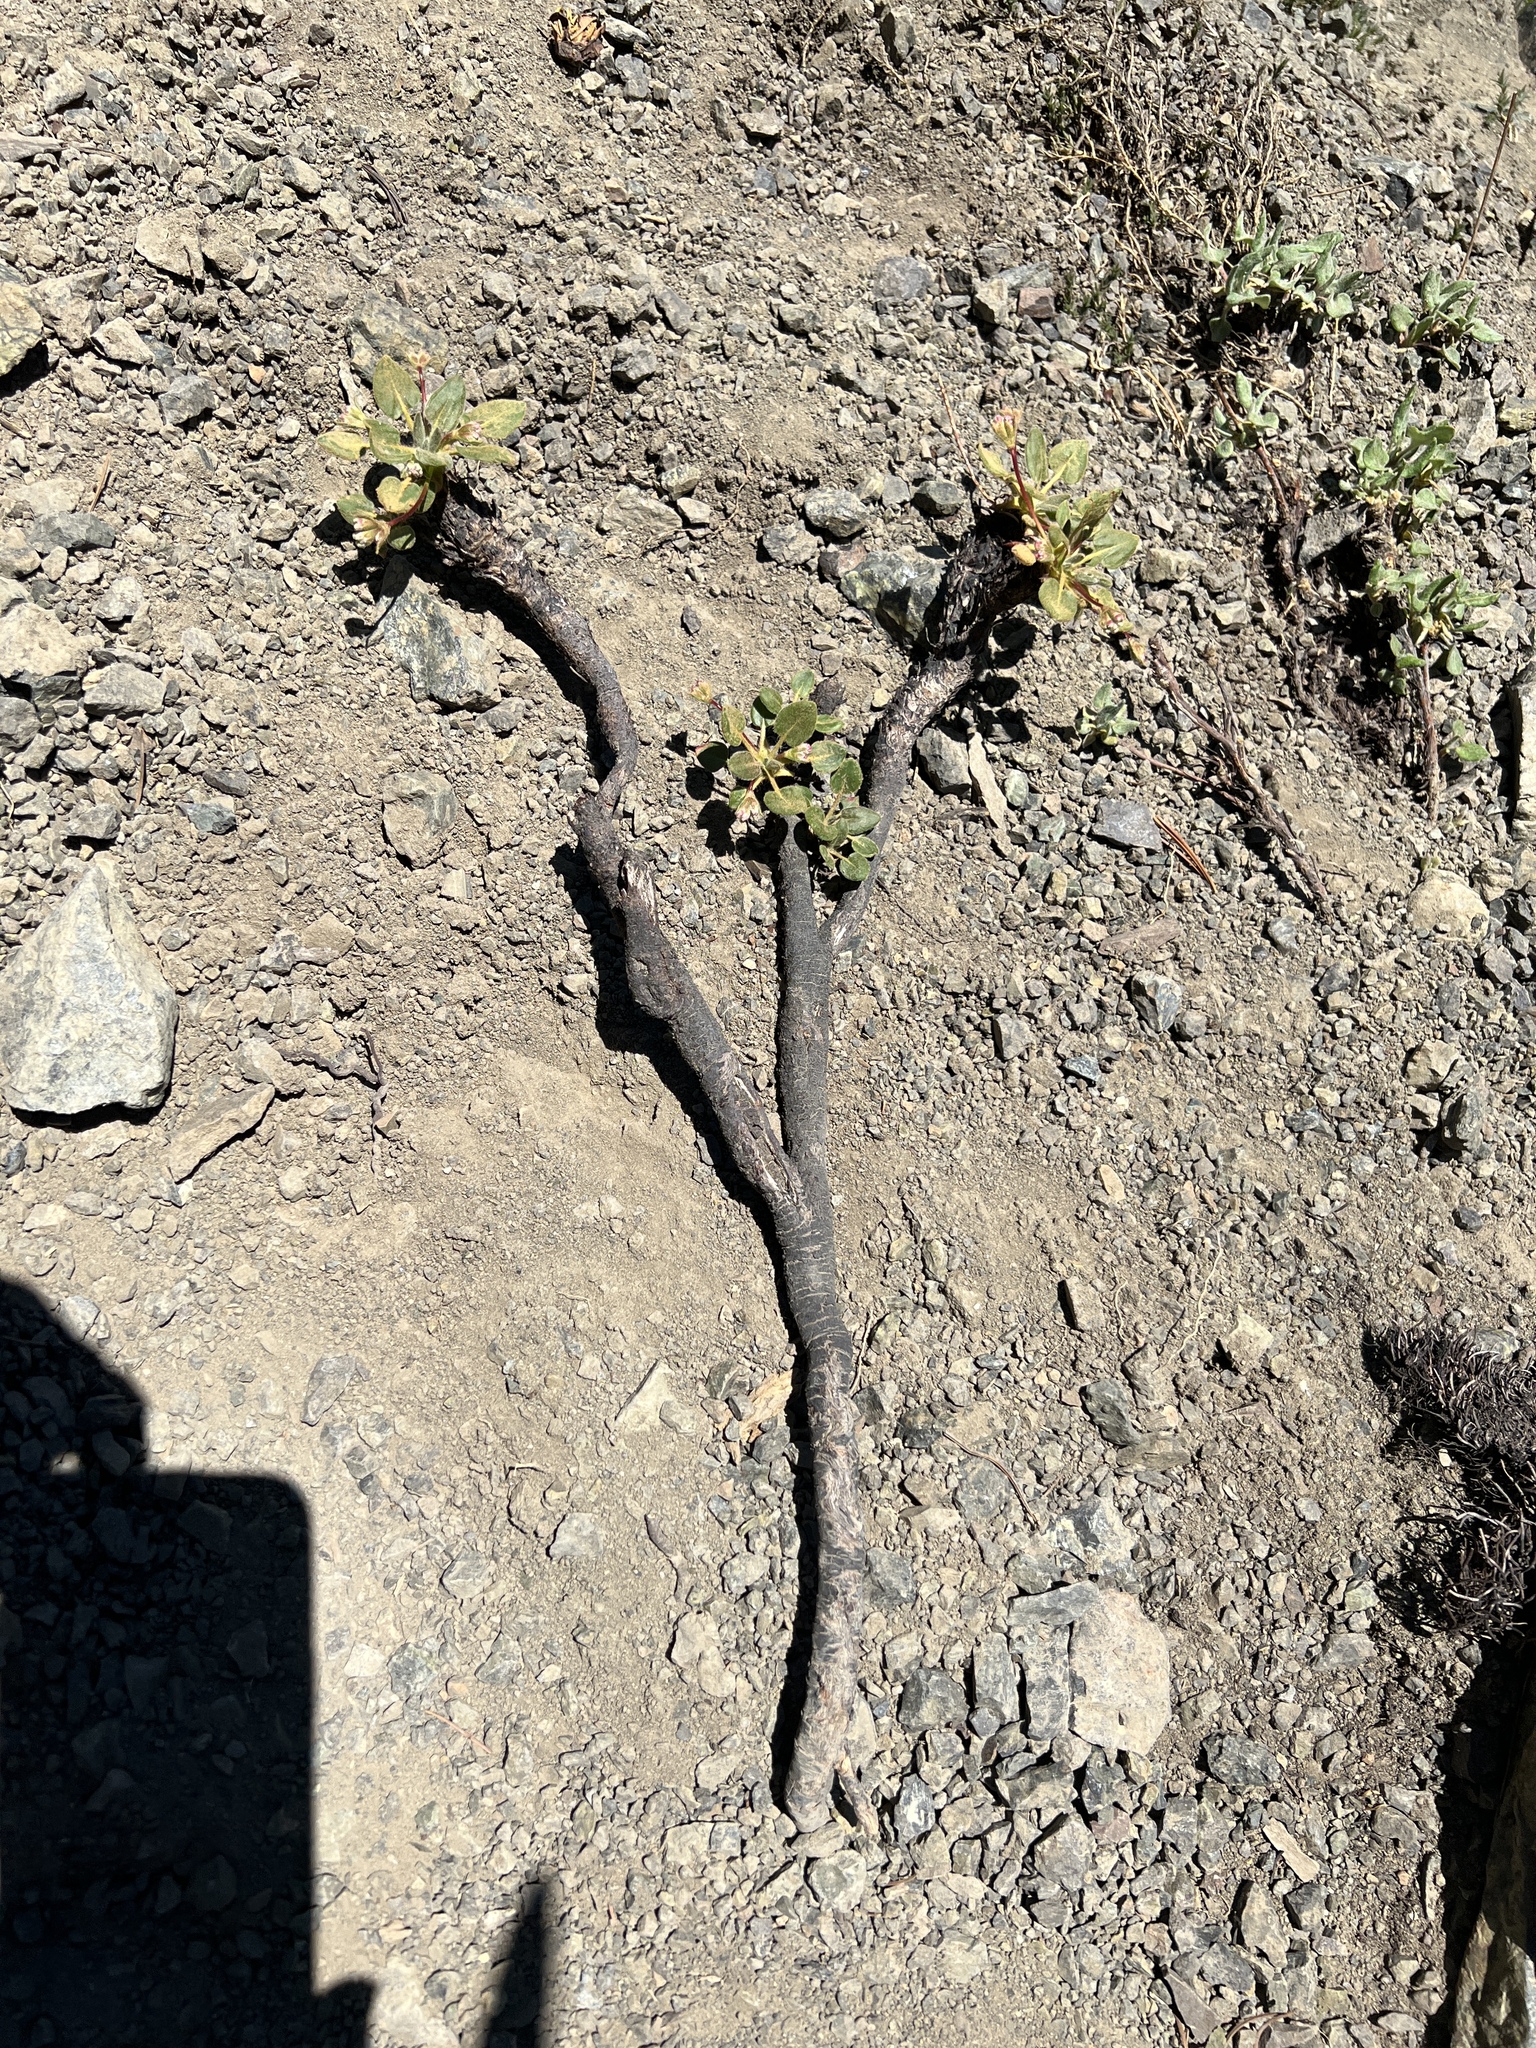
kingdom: Plantae
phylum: Tracheophyta
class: Magnoliopsida
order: Caryophyllales
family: Polygonaceae
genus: Eriogonum
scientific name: Eriogonum pyrolifolium
